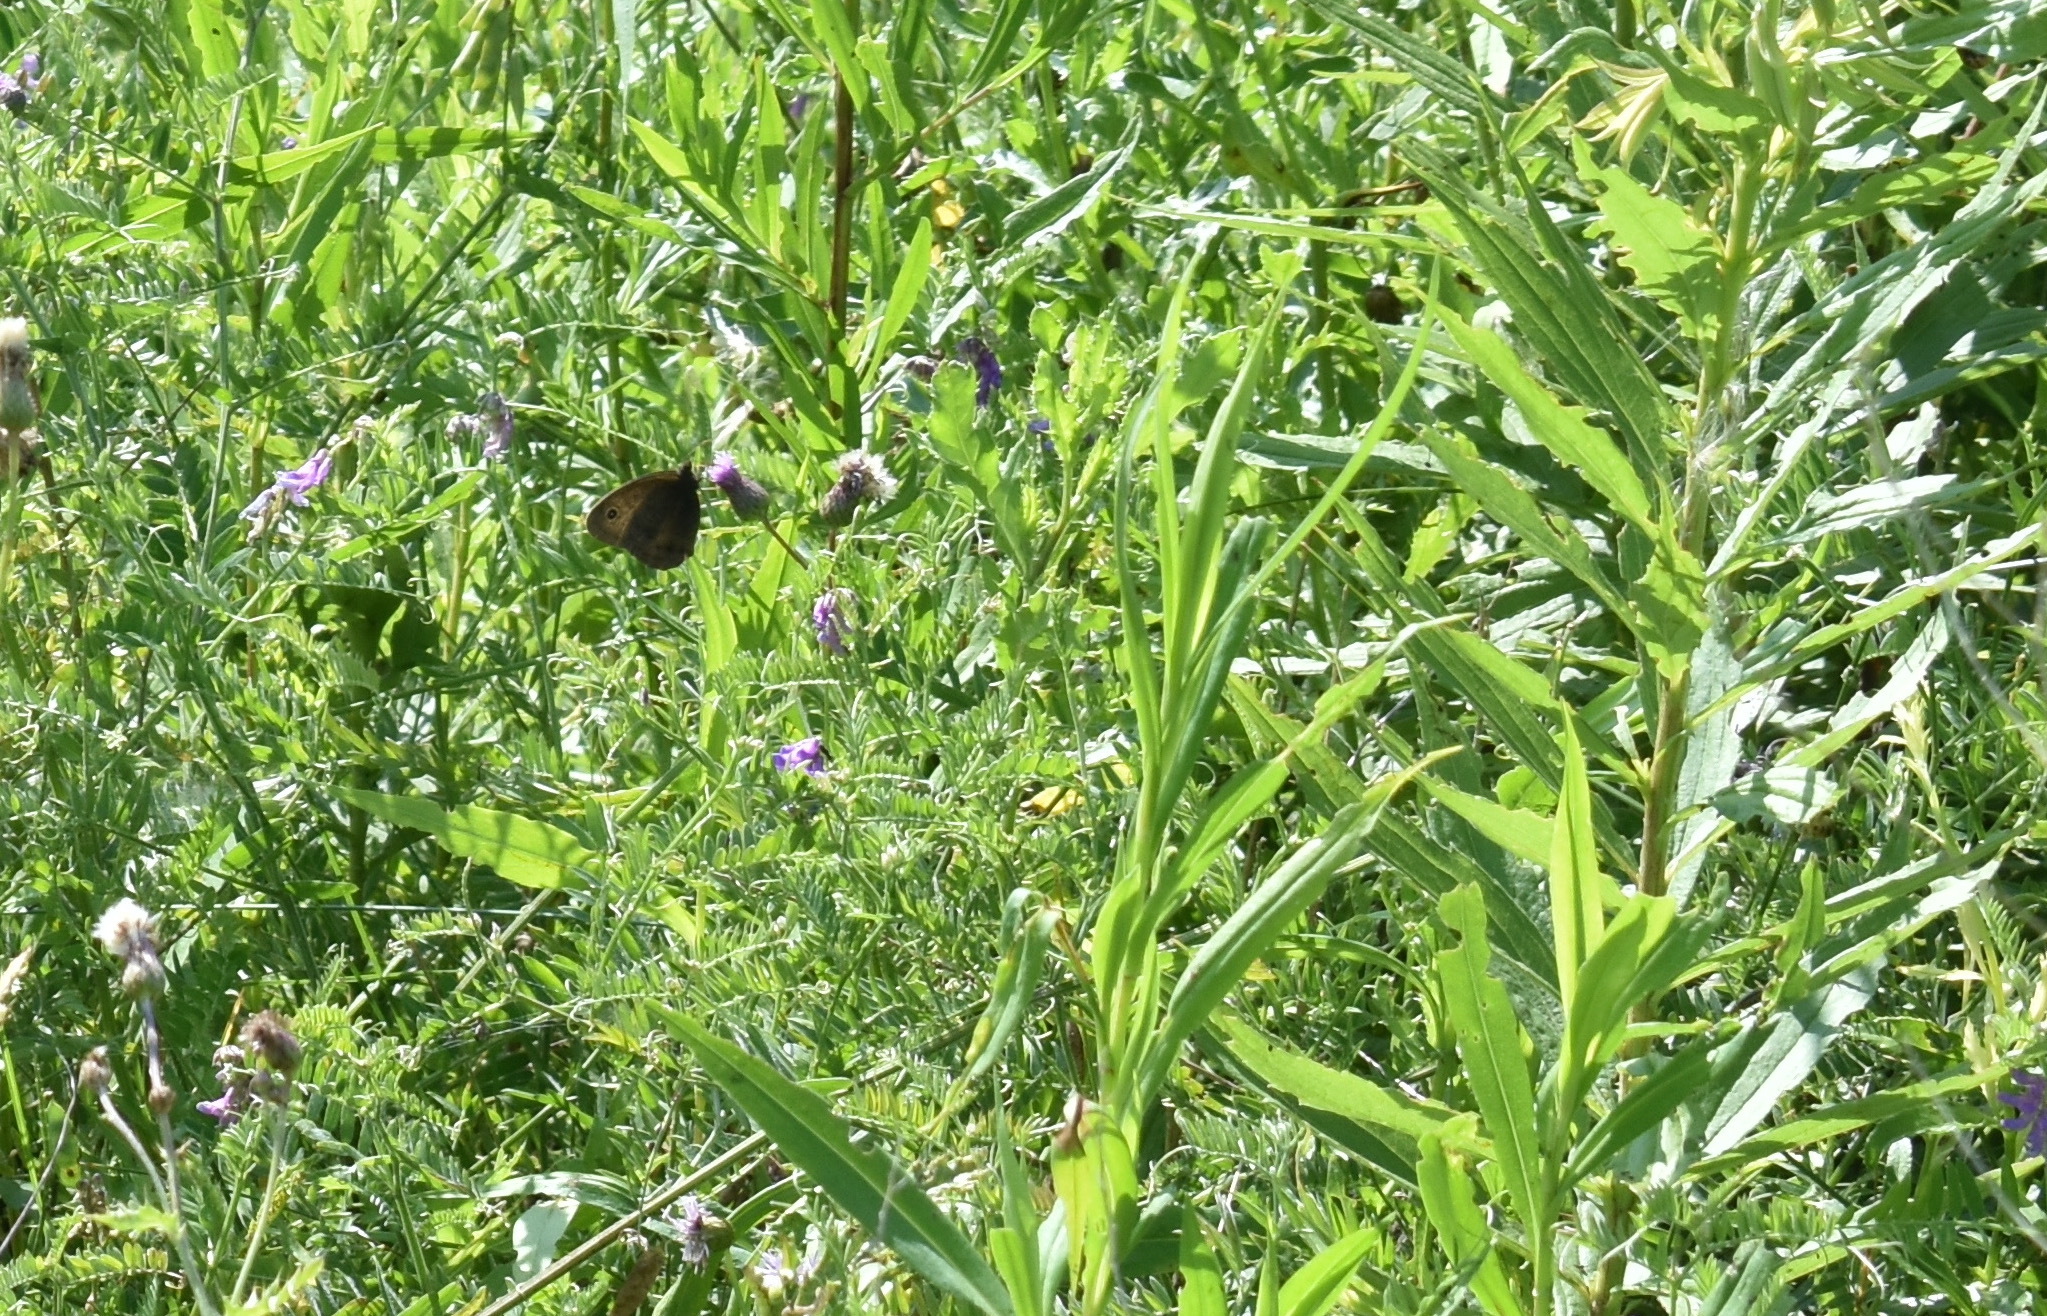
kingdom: Animalia
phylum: Arthropoda
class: Insecta
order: Lepidoptera
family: Nymphalidae
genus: Cercyonis
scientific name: Cercyonis pegala
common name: Common wood-nymph
